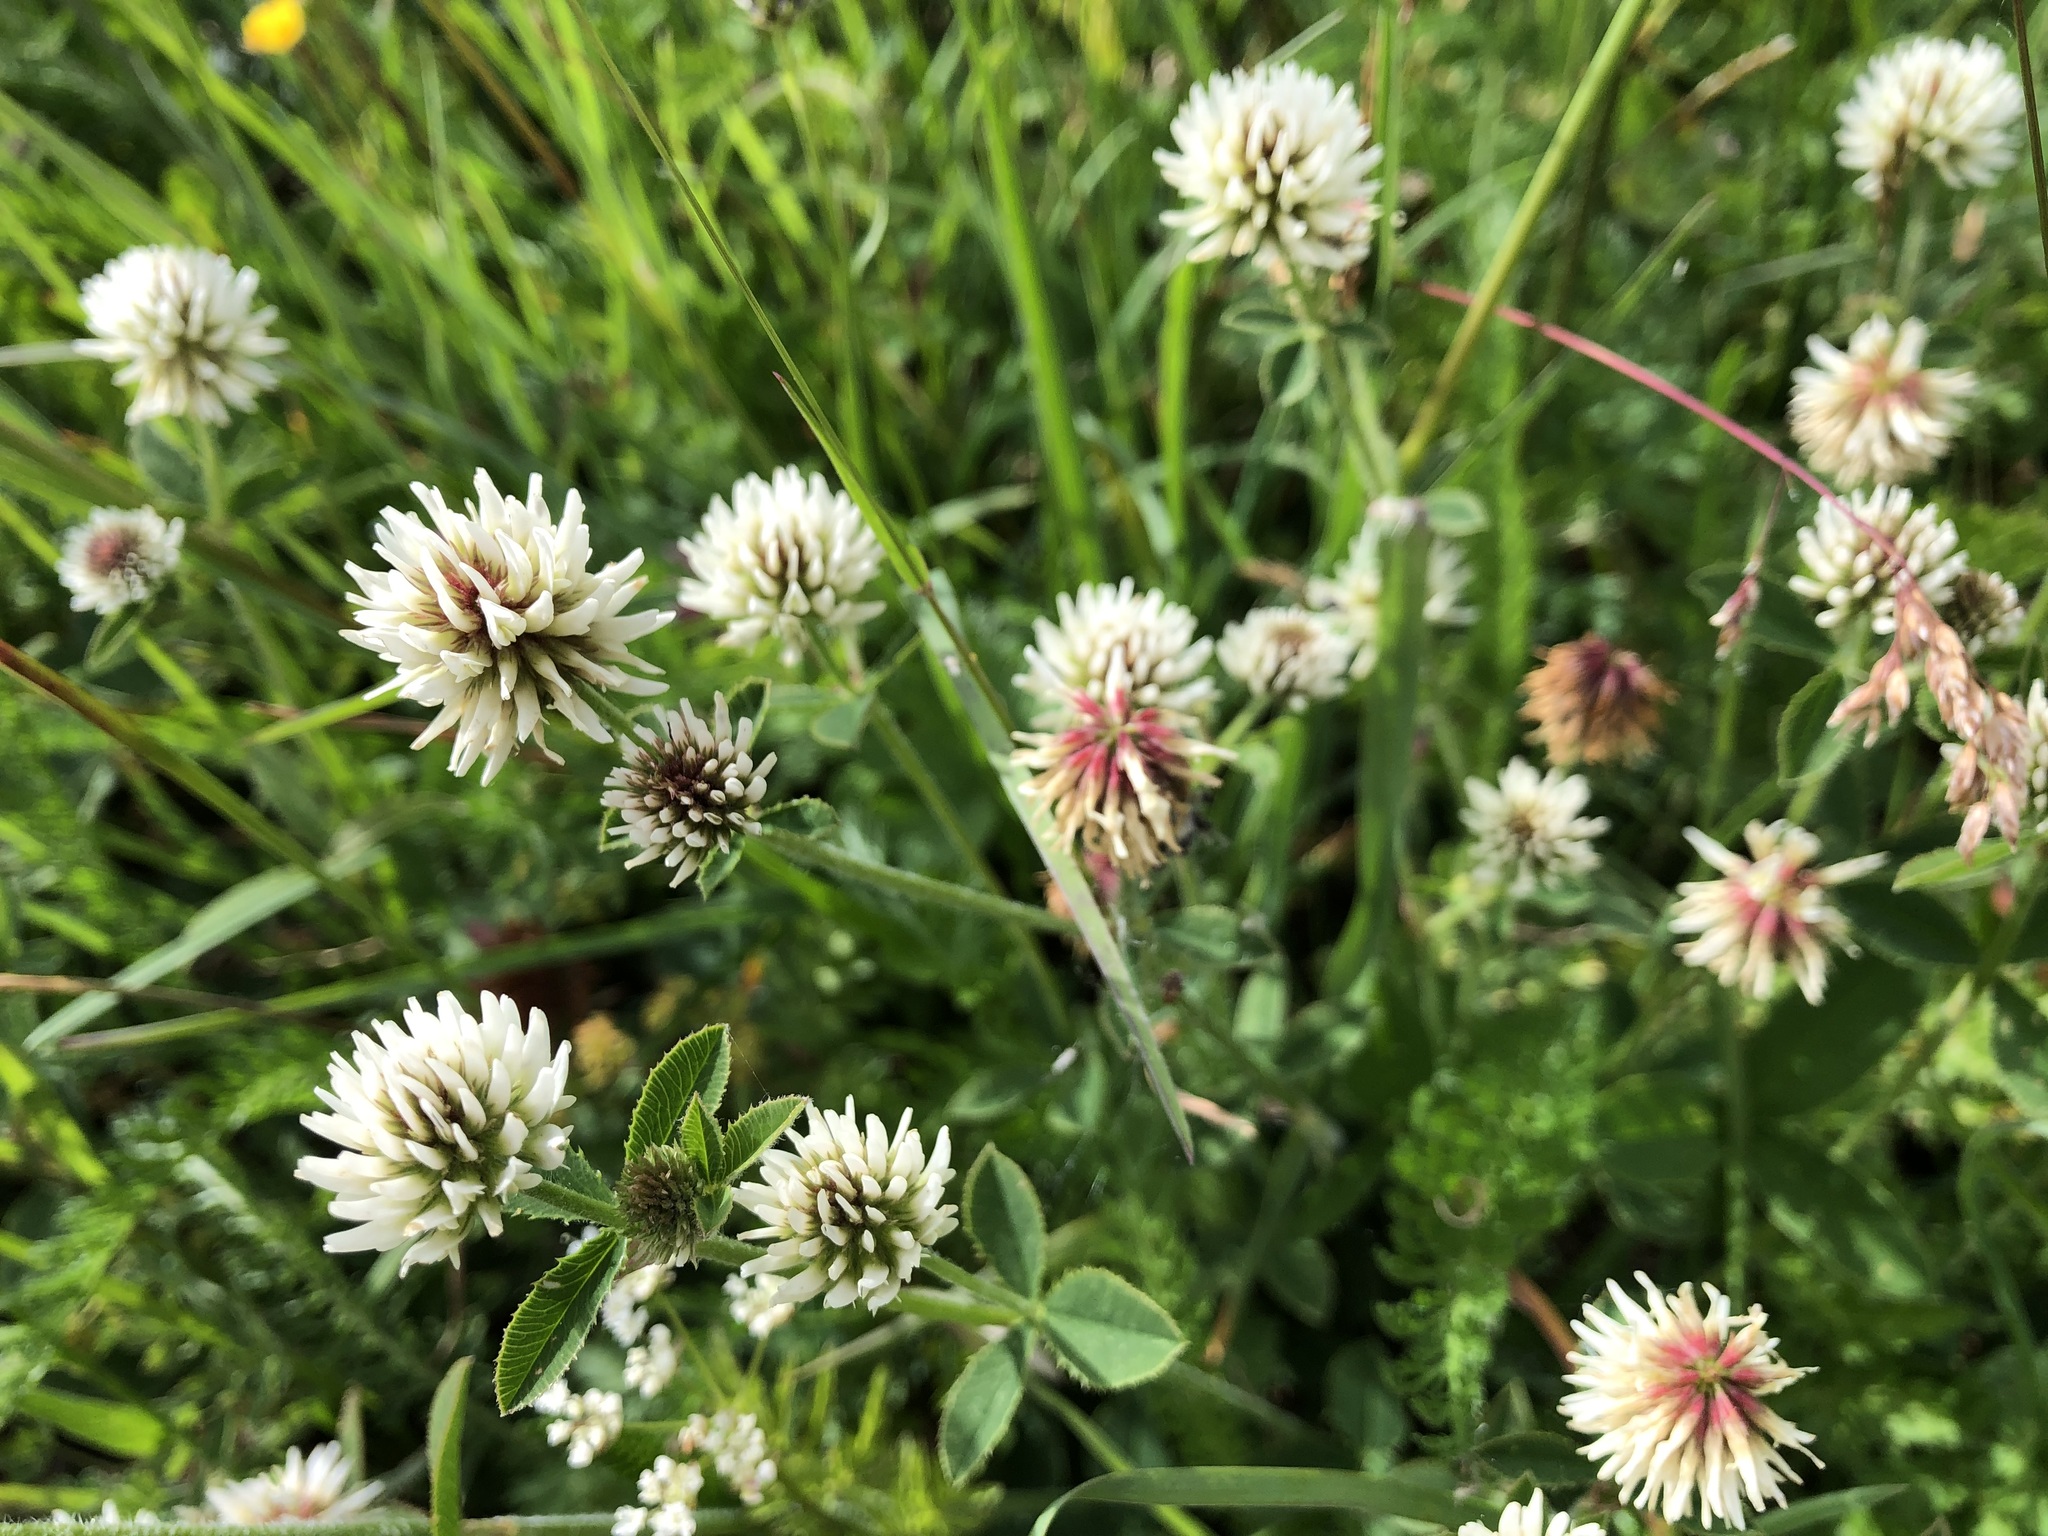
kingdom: Plantae
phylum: Tracheophyta
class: Magnoliopsida
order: Fabales
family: Fabaceae
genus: Trifolium
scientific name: Trifolium montanum
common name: Mountain clover
